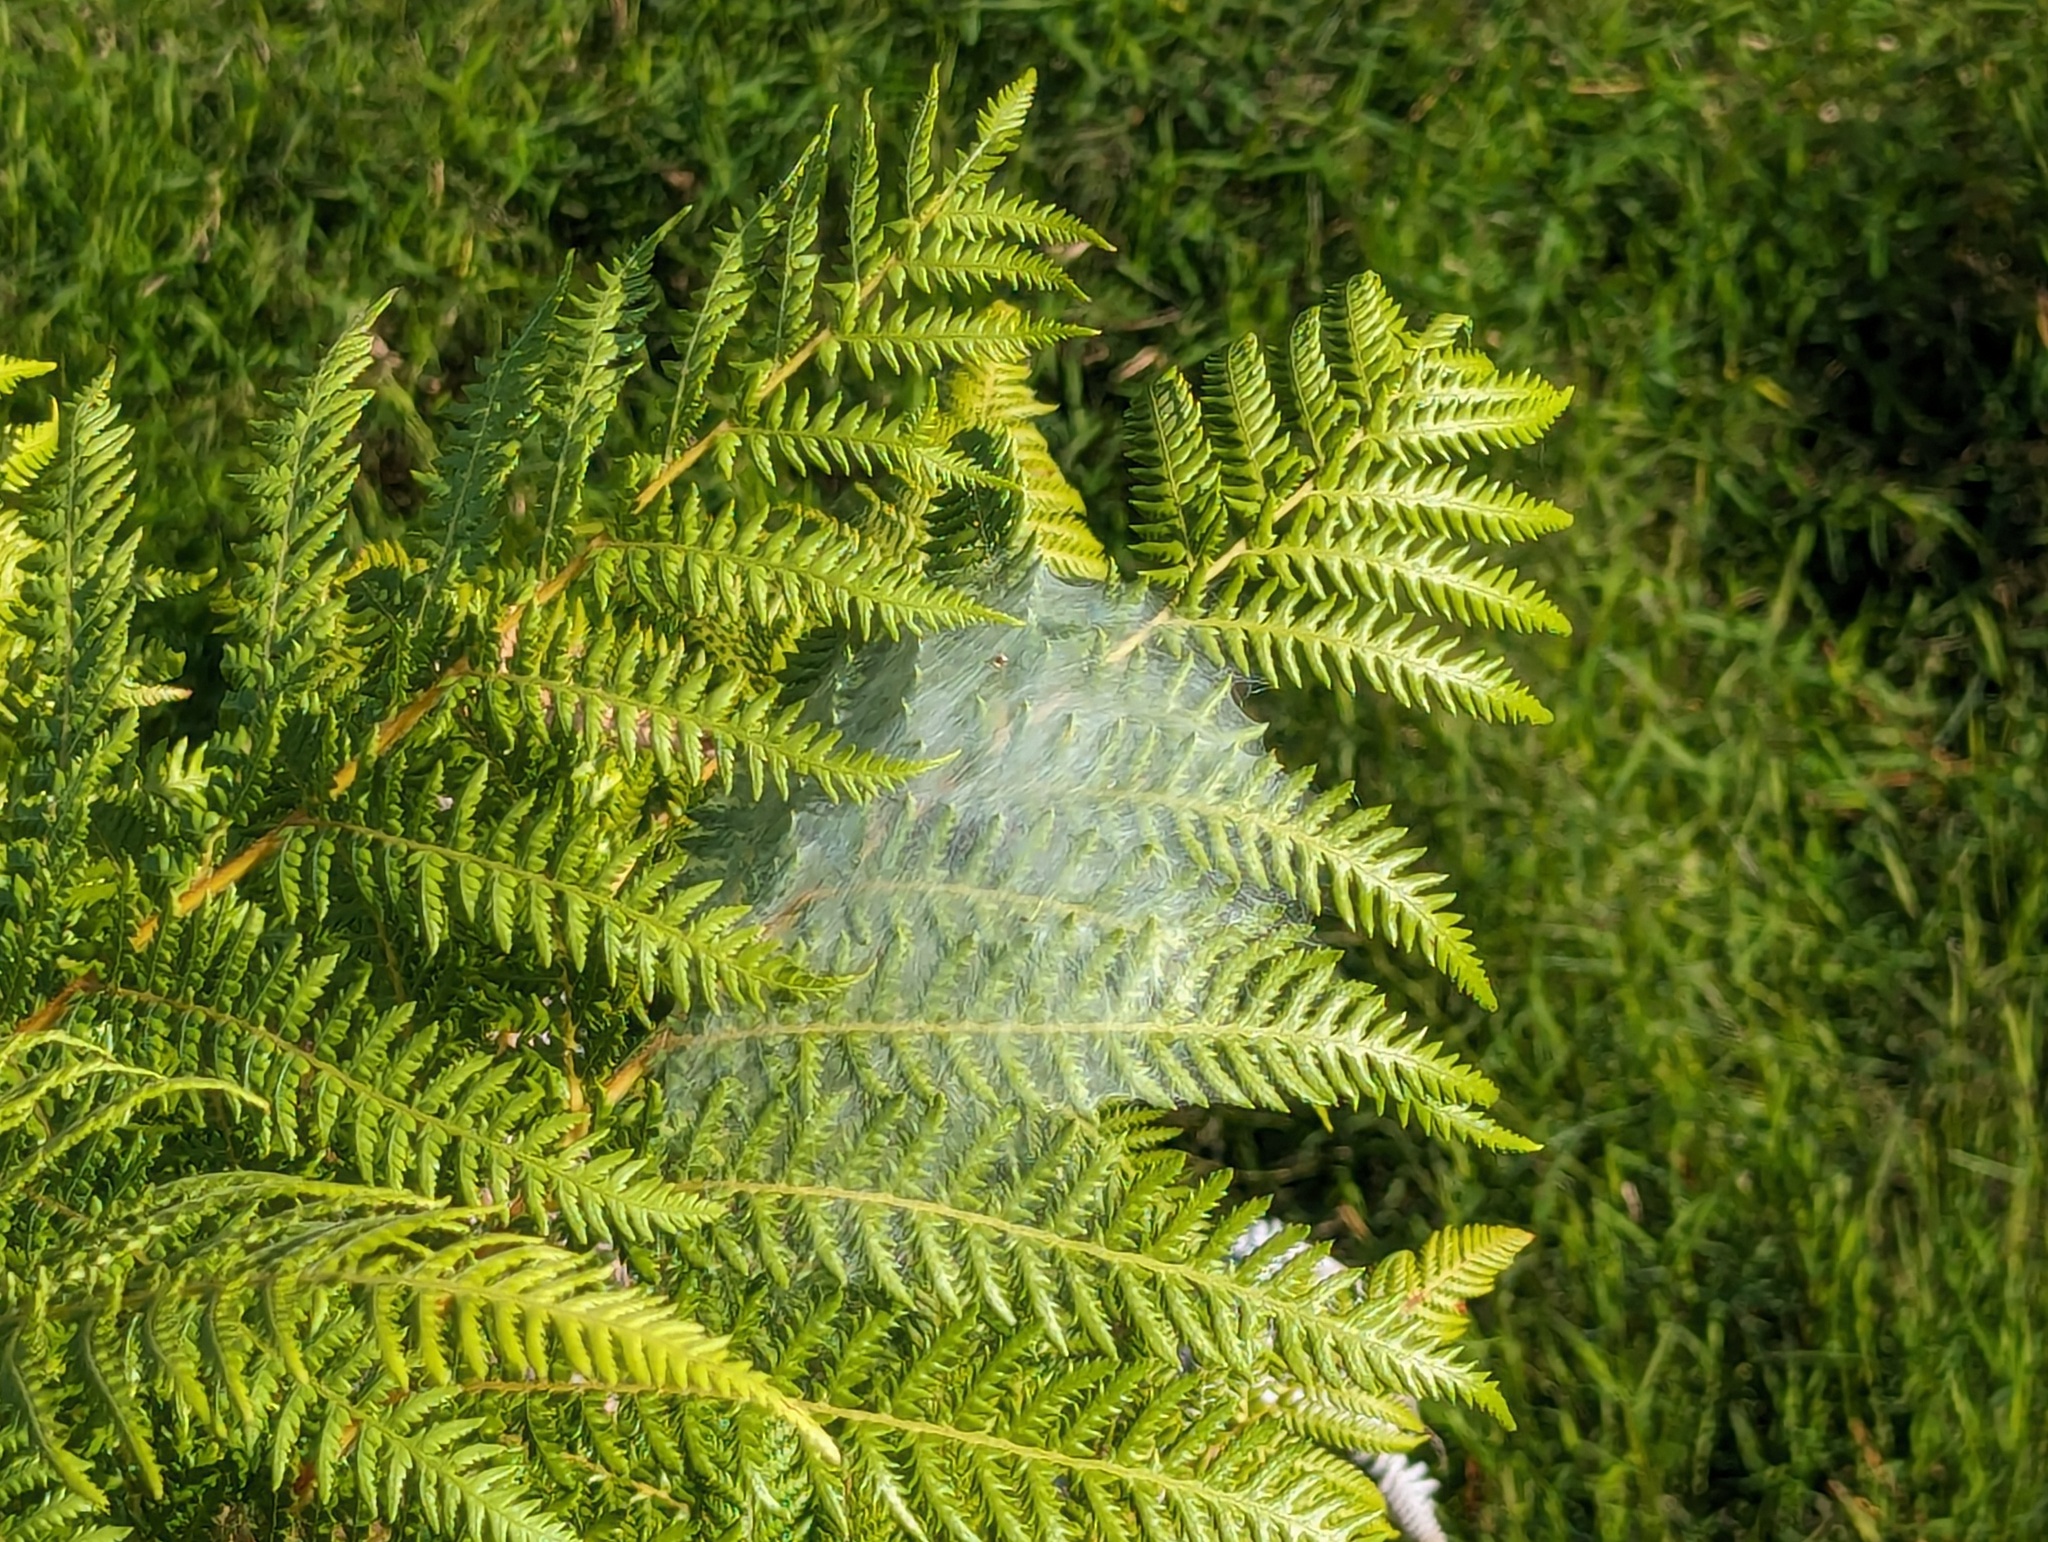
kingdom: Animalia
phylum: Arthropoda
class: Arachnida
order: Araneae
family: Pisauridae
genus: Dolomedes
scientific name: Dolomedes minor
